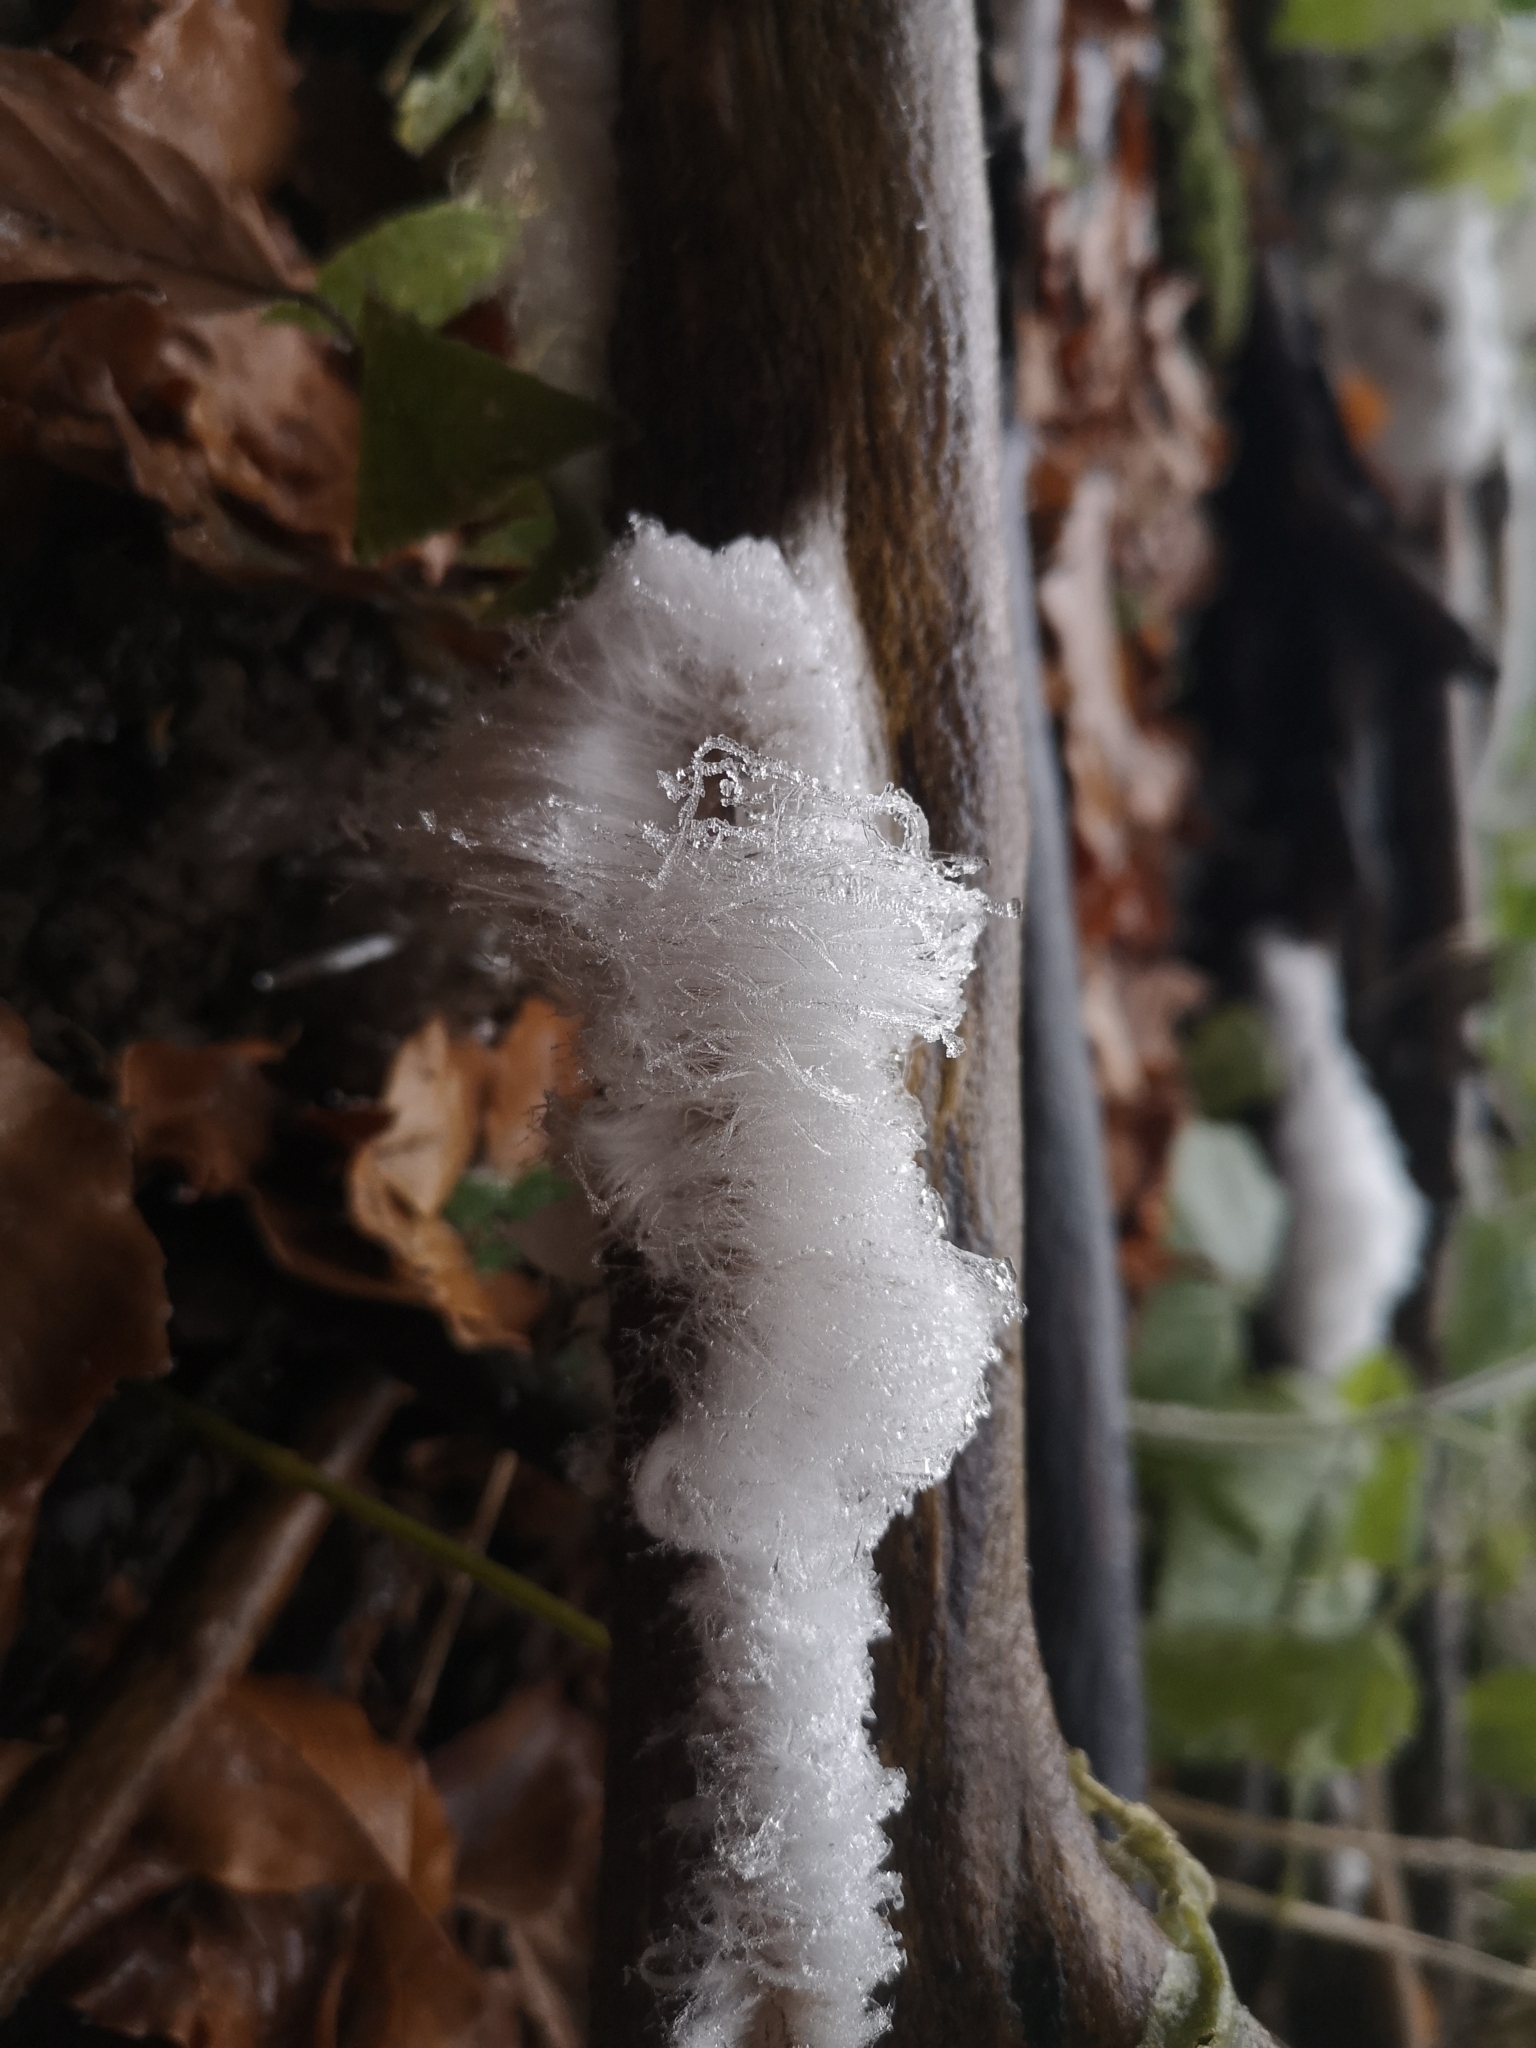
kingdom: Fungi
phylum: Basidiomycota
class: Agaricomycetes
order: Auriculariales
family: Auriculariaceae
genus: Exidiopsis
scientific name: Exidiopsis effusa
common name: Hair ice crust
